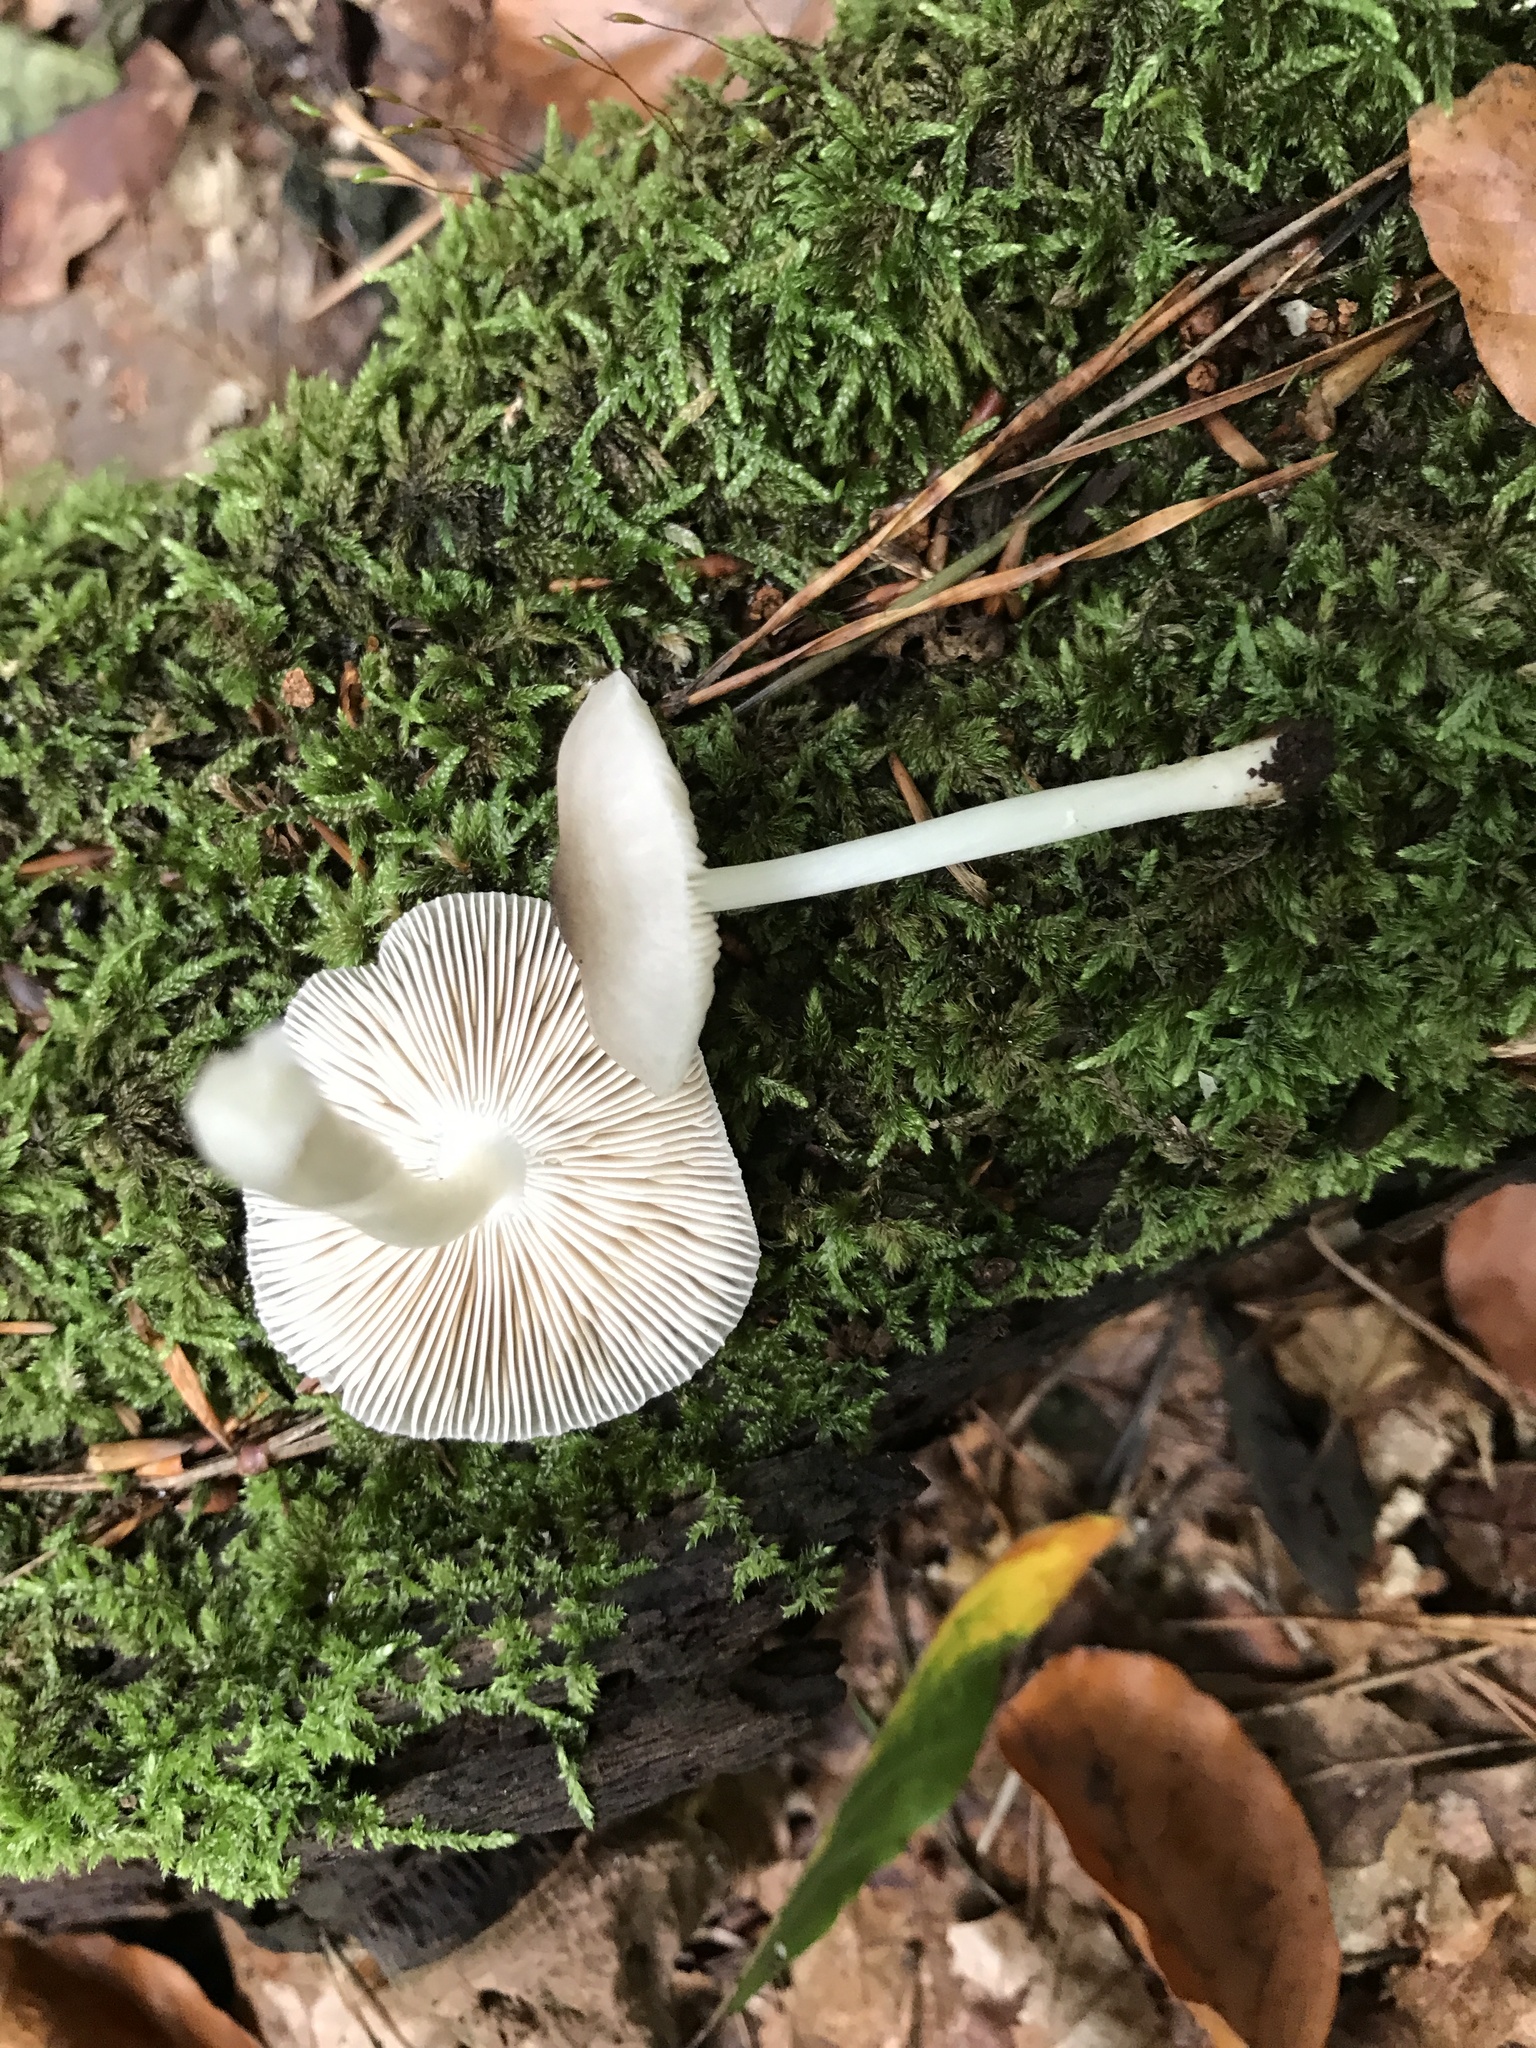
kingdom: Fungi
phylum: Basidiomycota
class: Agaricomycetes
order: Agaricales
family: Pluteaceae
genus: Pluteus
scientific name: Pluteus salicinus
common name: Willow shield
